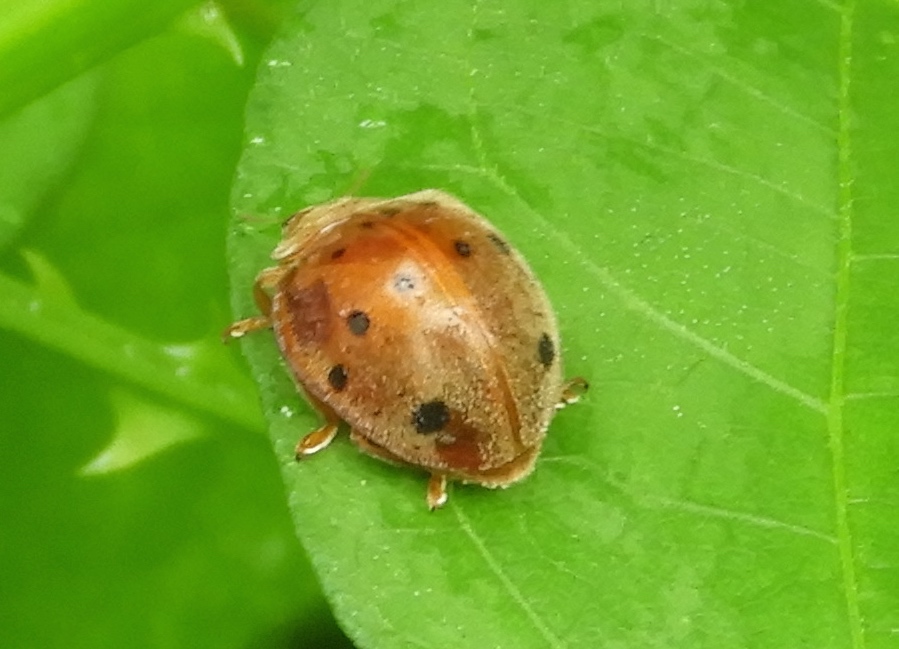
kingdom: Animalia
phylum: Arthropoda
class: Insecta
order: Coleoptera
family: Coccinellidae
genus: Epilachna
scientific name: Epilachna
